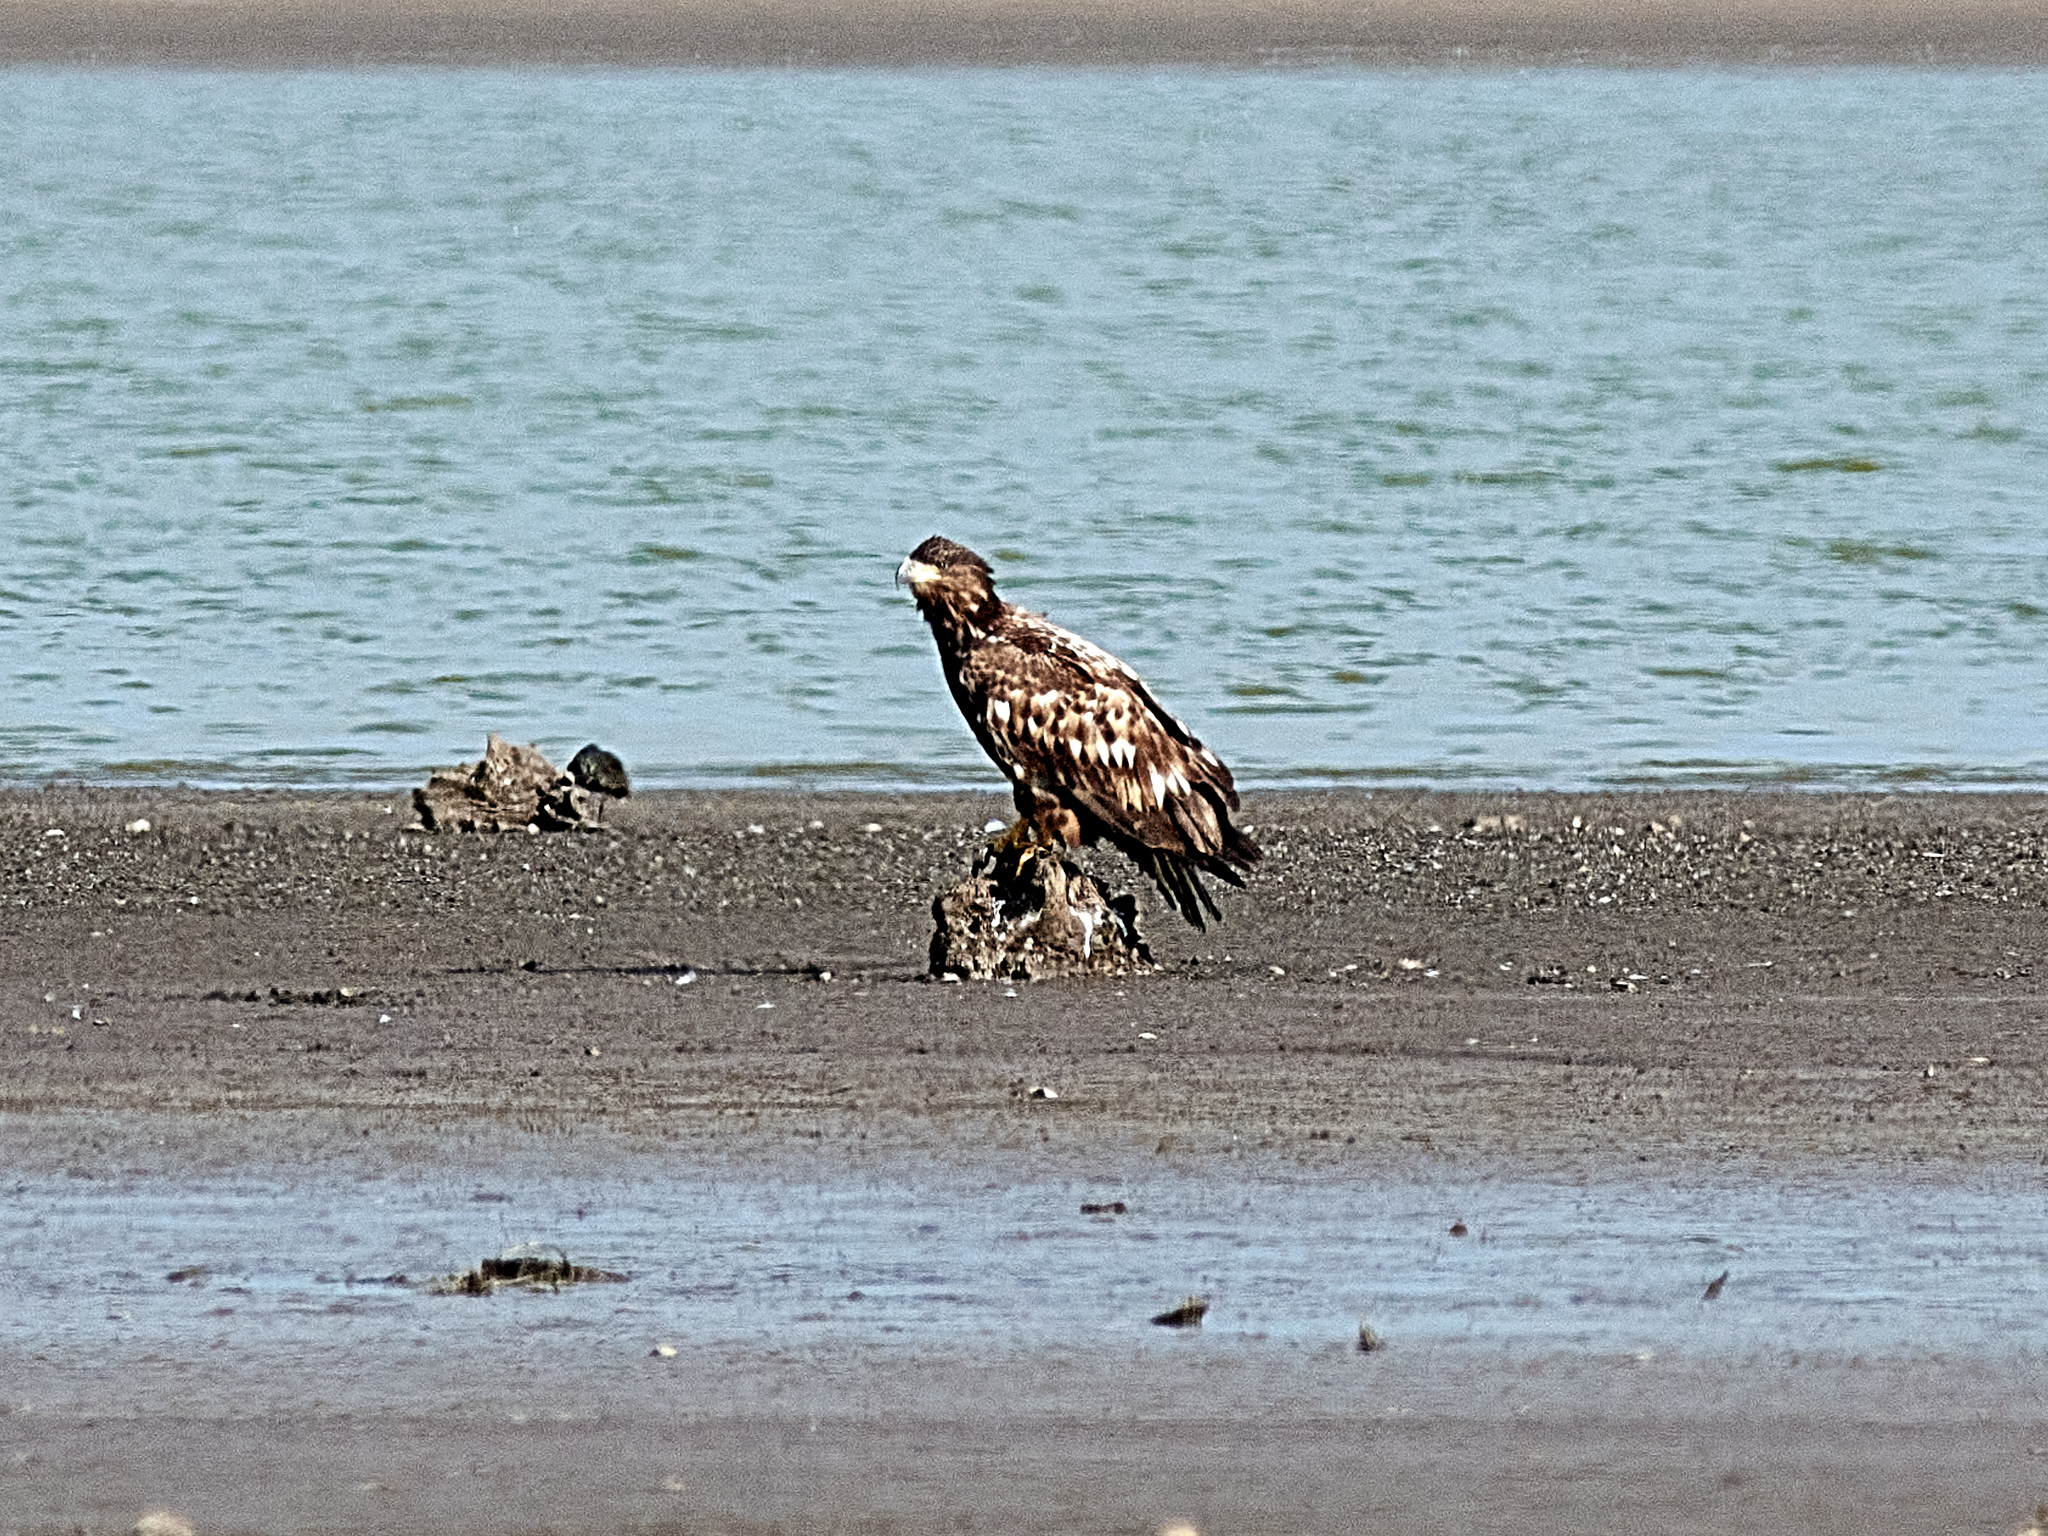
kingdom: Animalia
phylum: Chordata
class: Aves
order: Accipitriformes
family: Accipitridae
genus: Haliaeetus
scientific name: Haliaeetus albicilla
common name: White-tailed eagle
